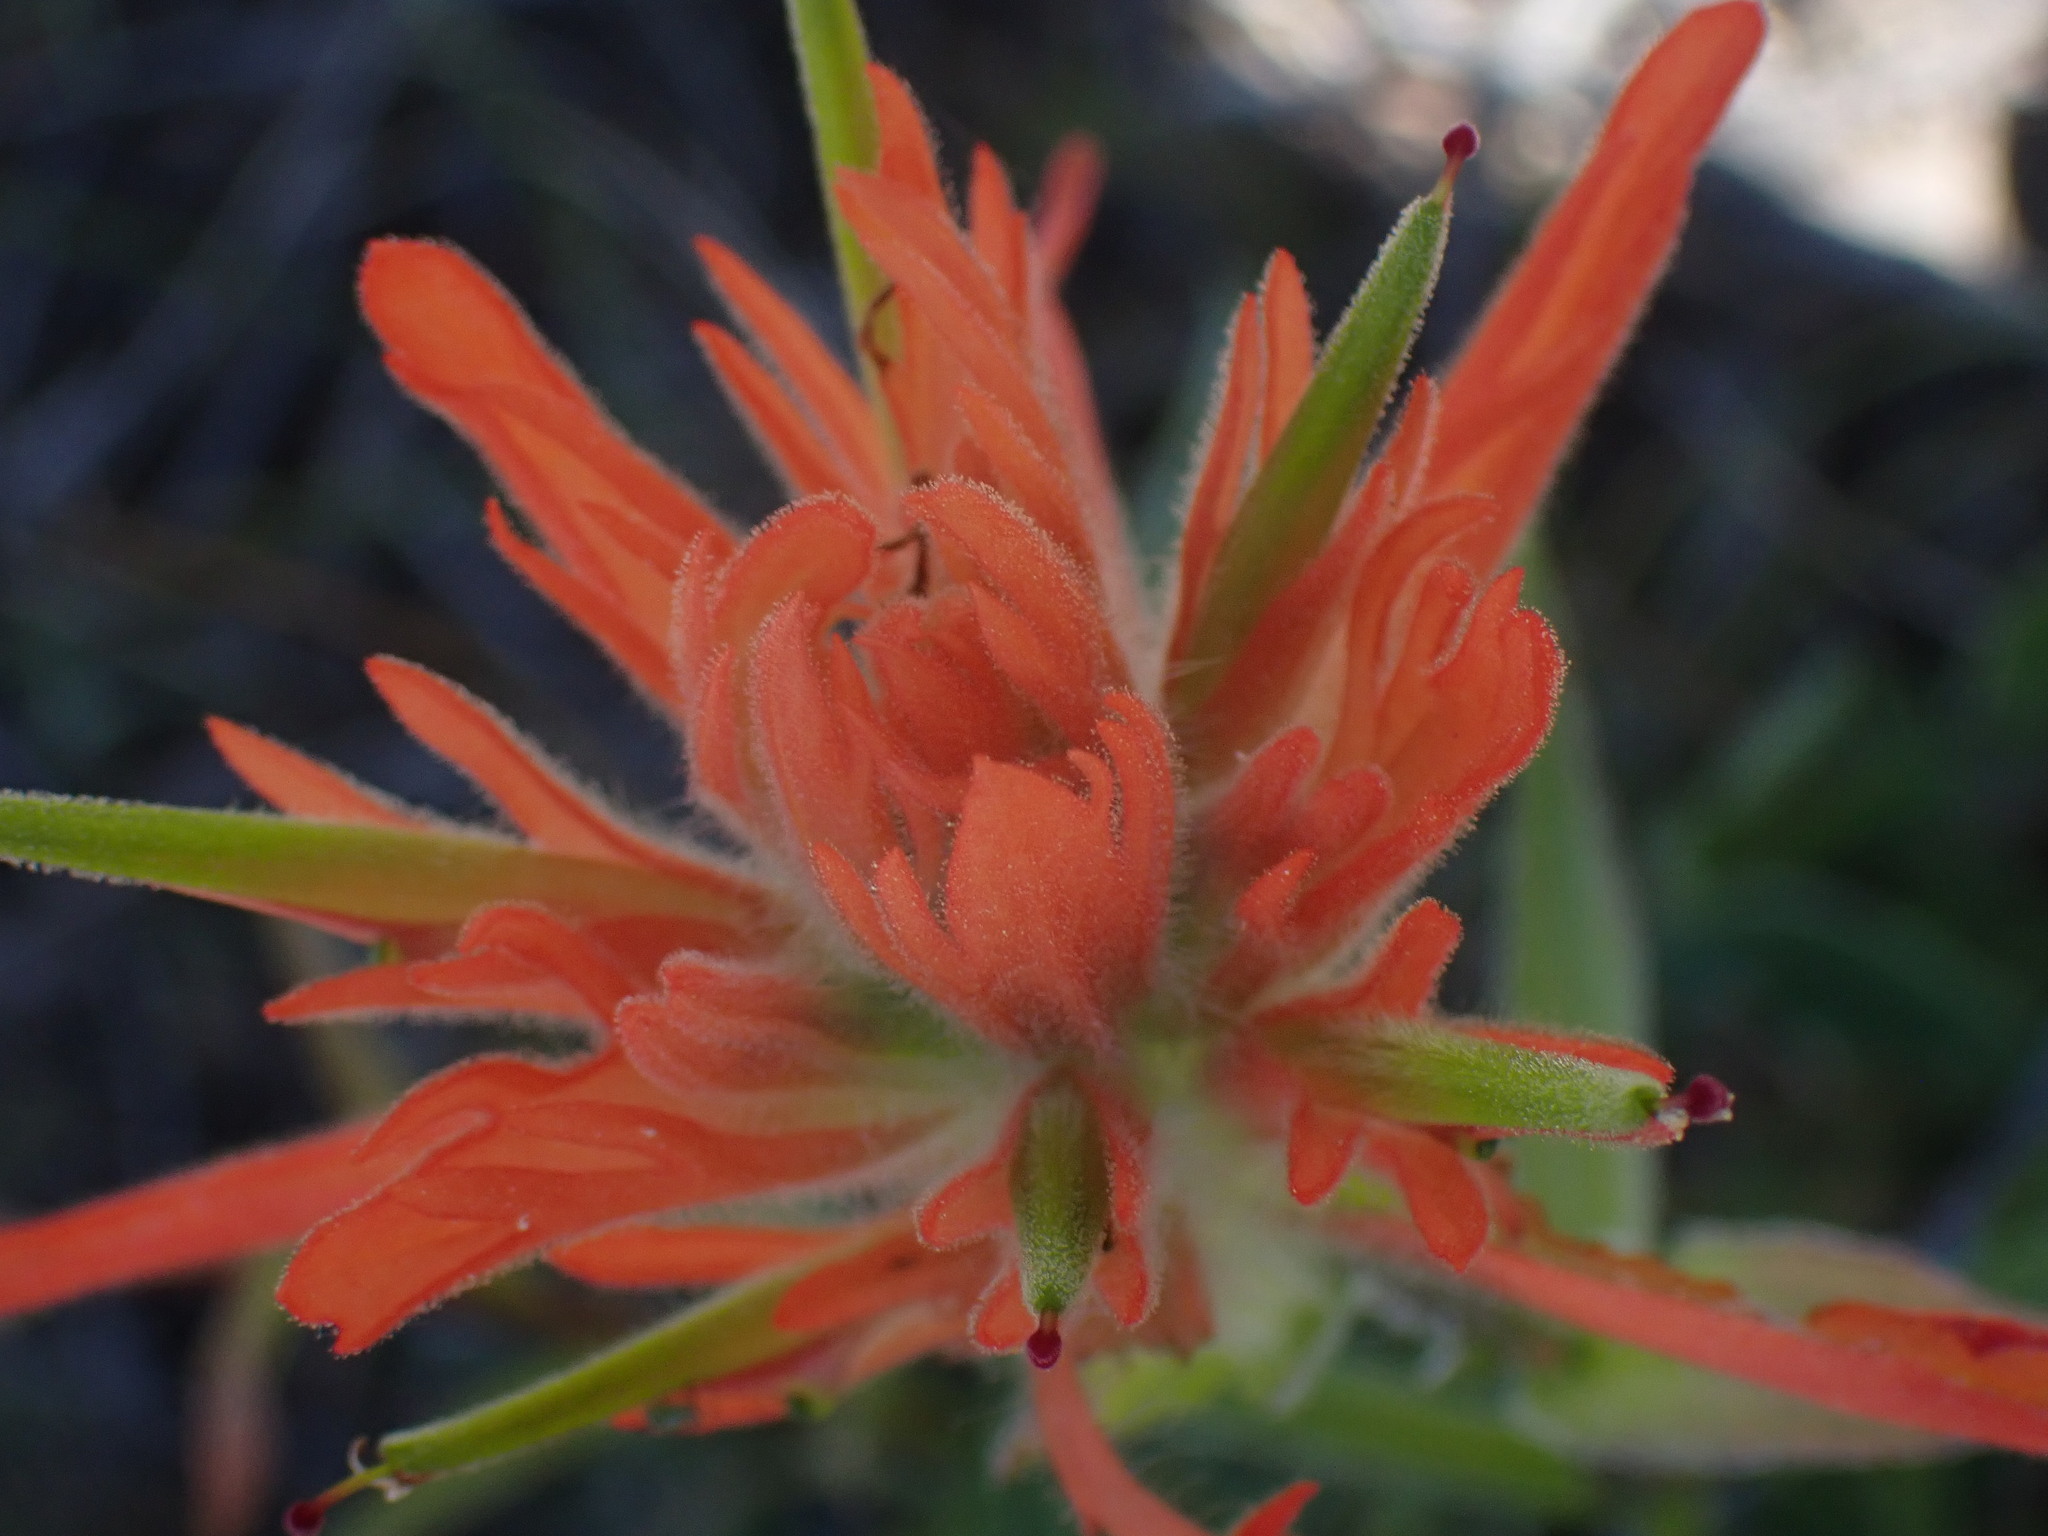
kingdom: Plantae
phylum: Tracheophyta
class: Magnoliopsida
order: Lamiales
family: Orobanchaceae
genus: Castilleja
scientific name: Castilleja miniata
